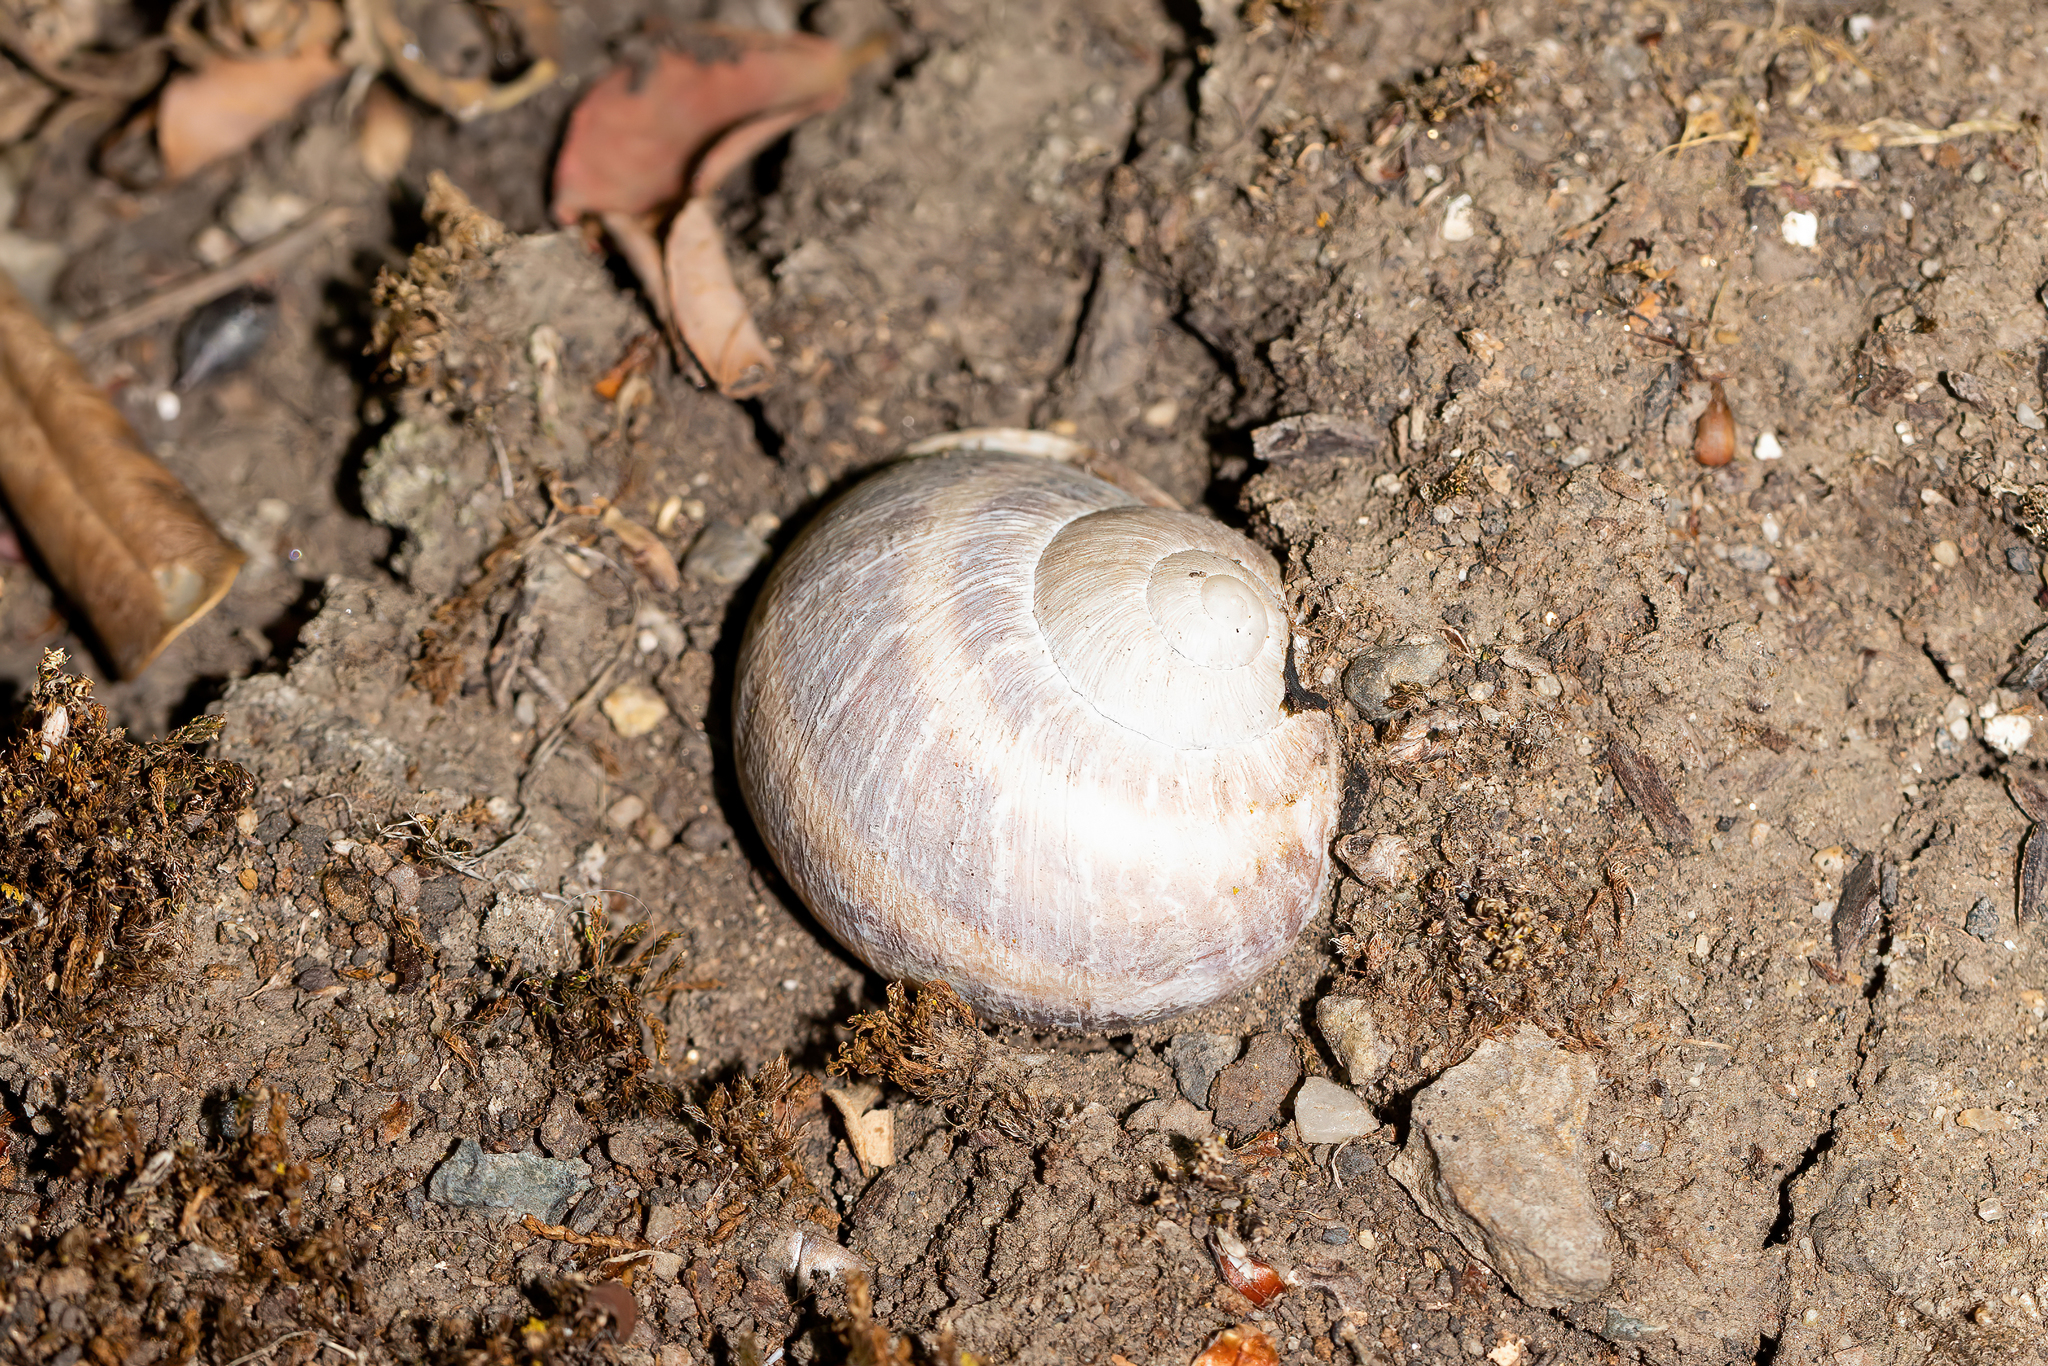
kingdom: Animalia
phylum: Mollusca
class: Gastropoda
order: Stylommatophora
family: Helicidae
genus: Cornu
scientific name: Cornu aspersum
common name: Brown garden snail
